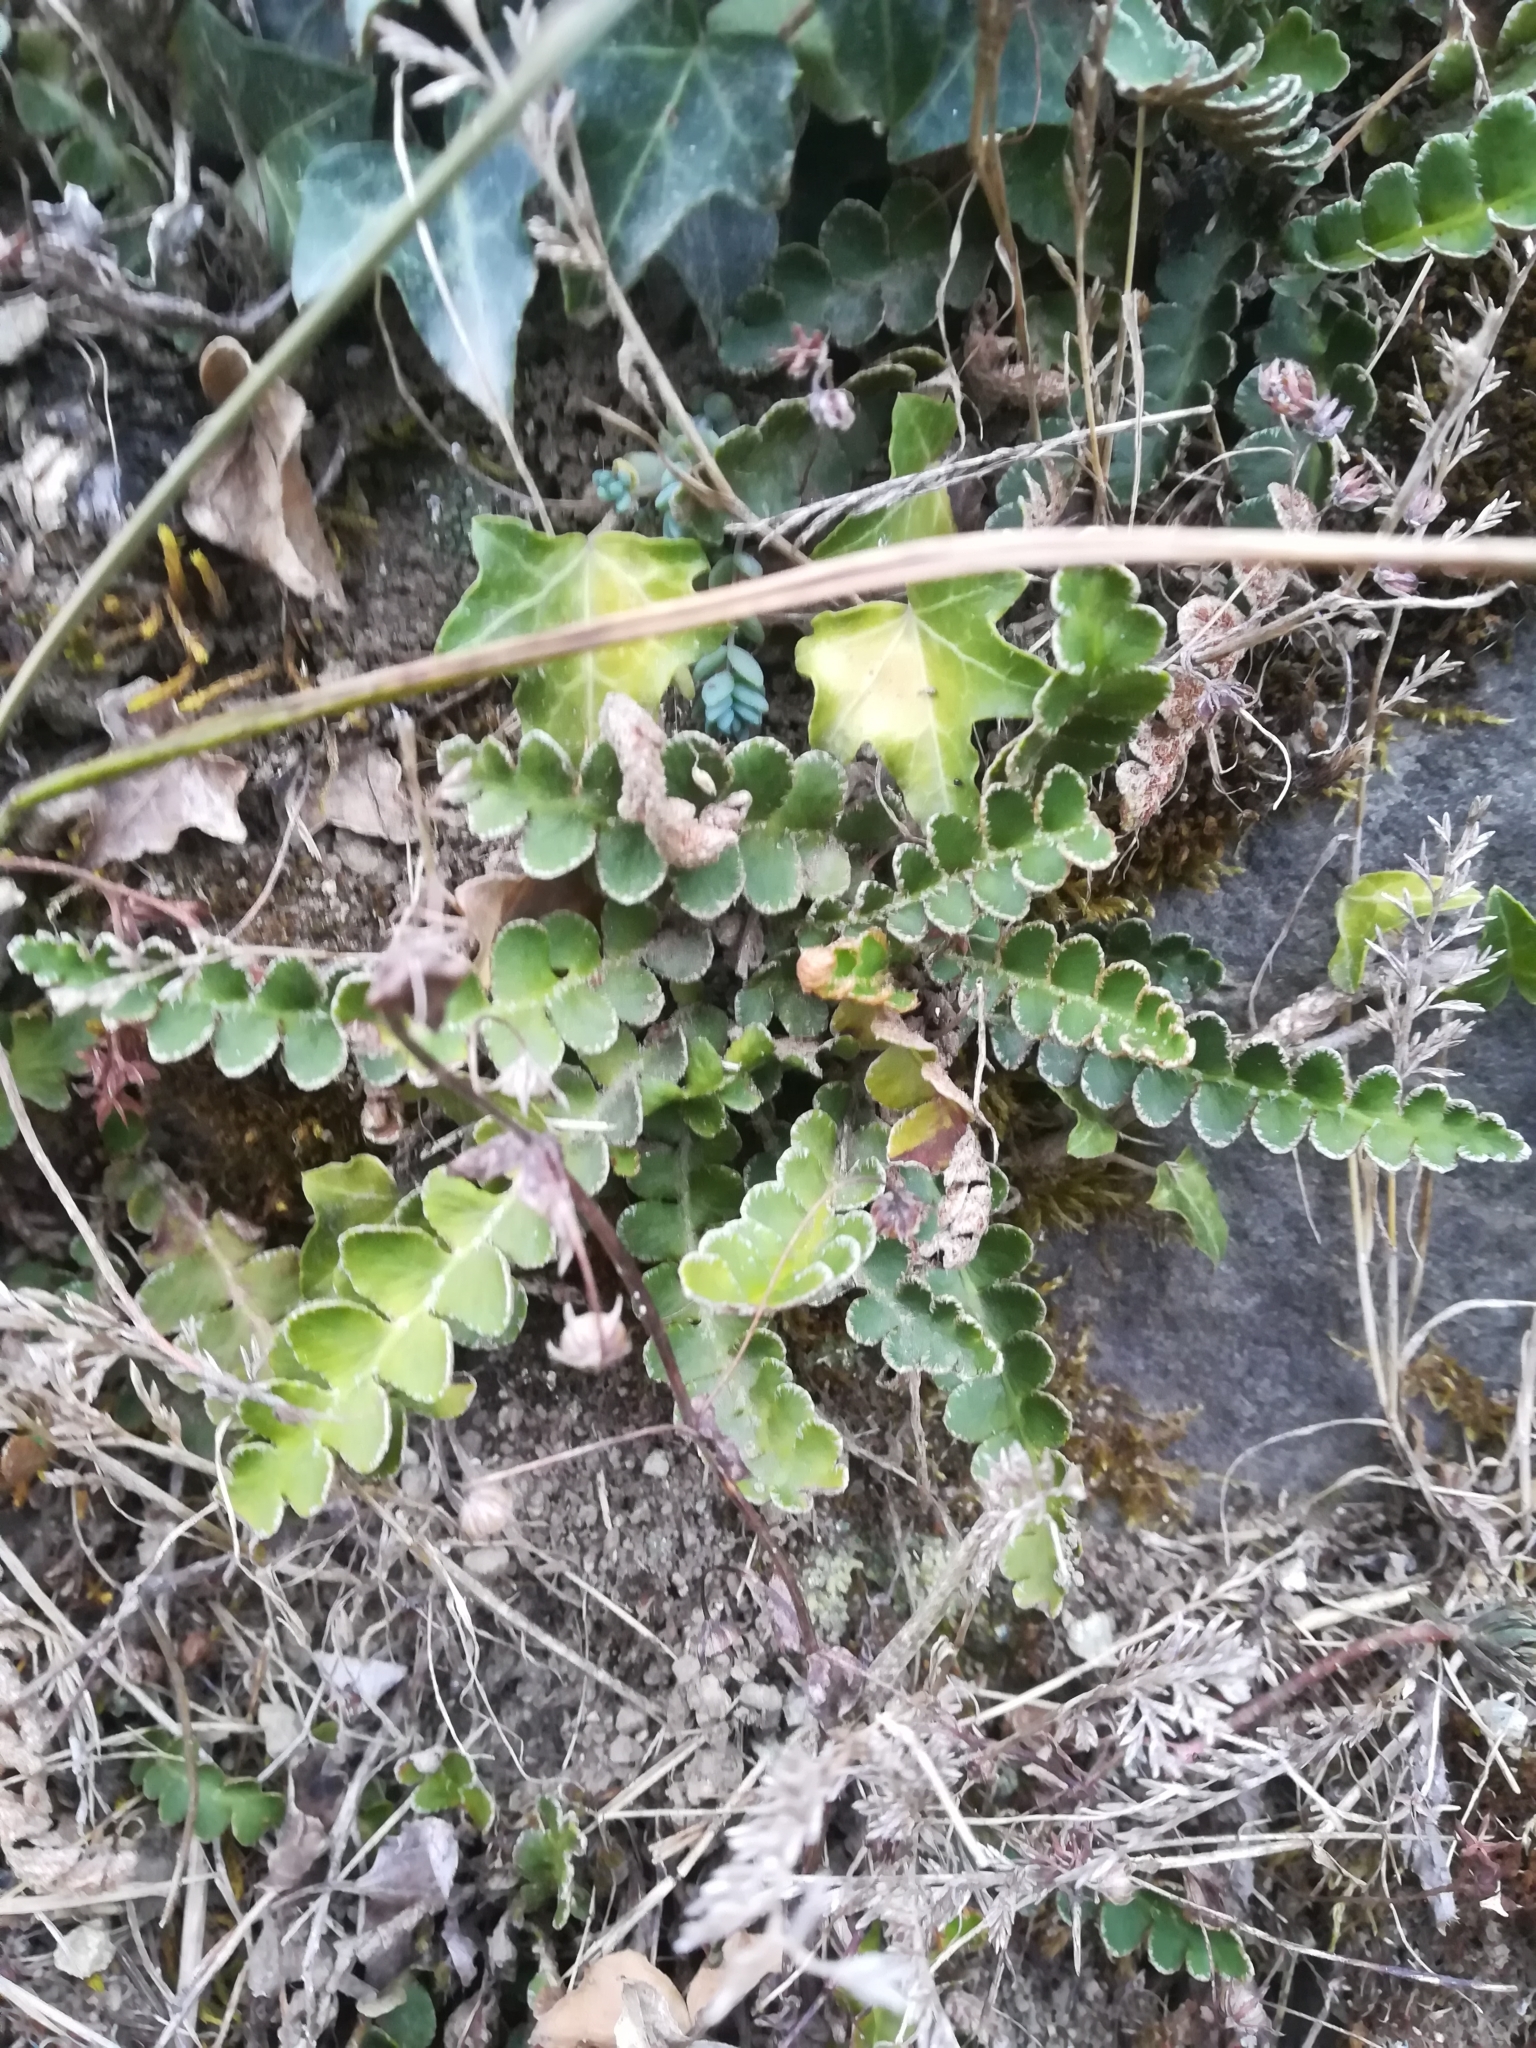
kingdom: Plantae
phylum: Tracheophyta
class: Polypodiopsida
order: Polypodiales
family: Aspleniaceae
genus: Asplenium
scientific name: Asplenium ceterach
